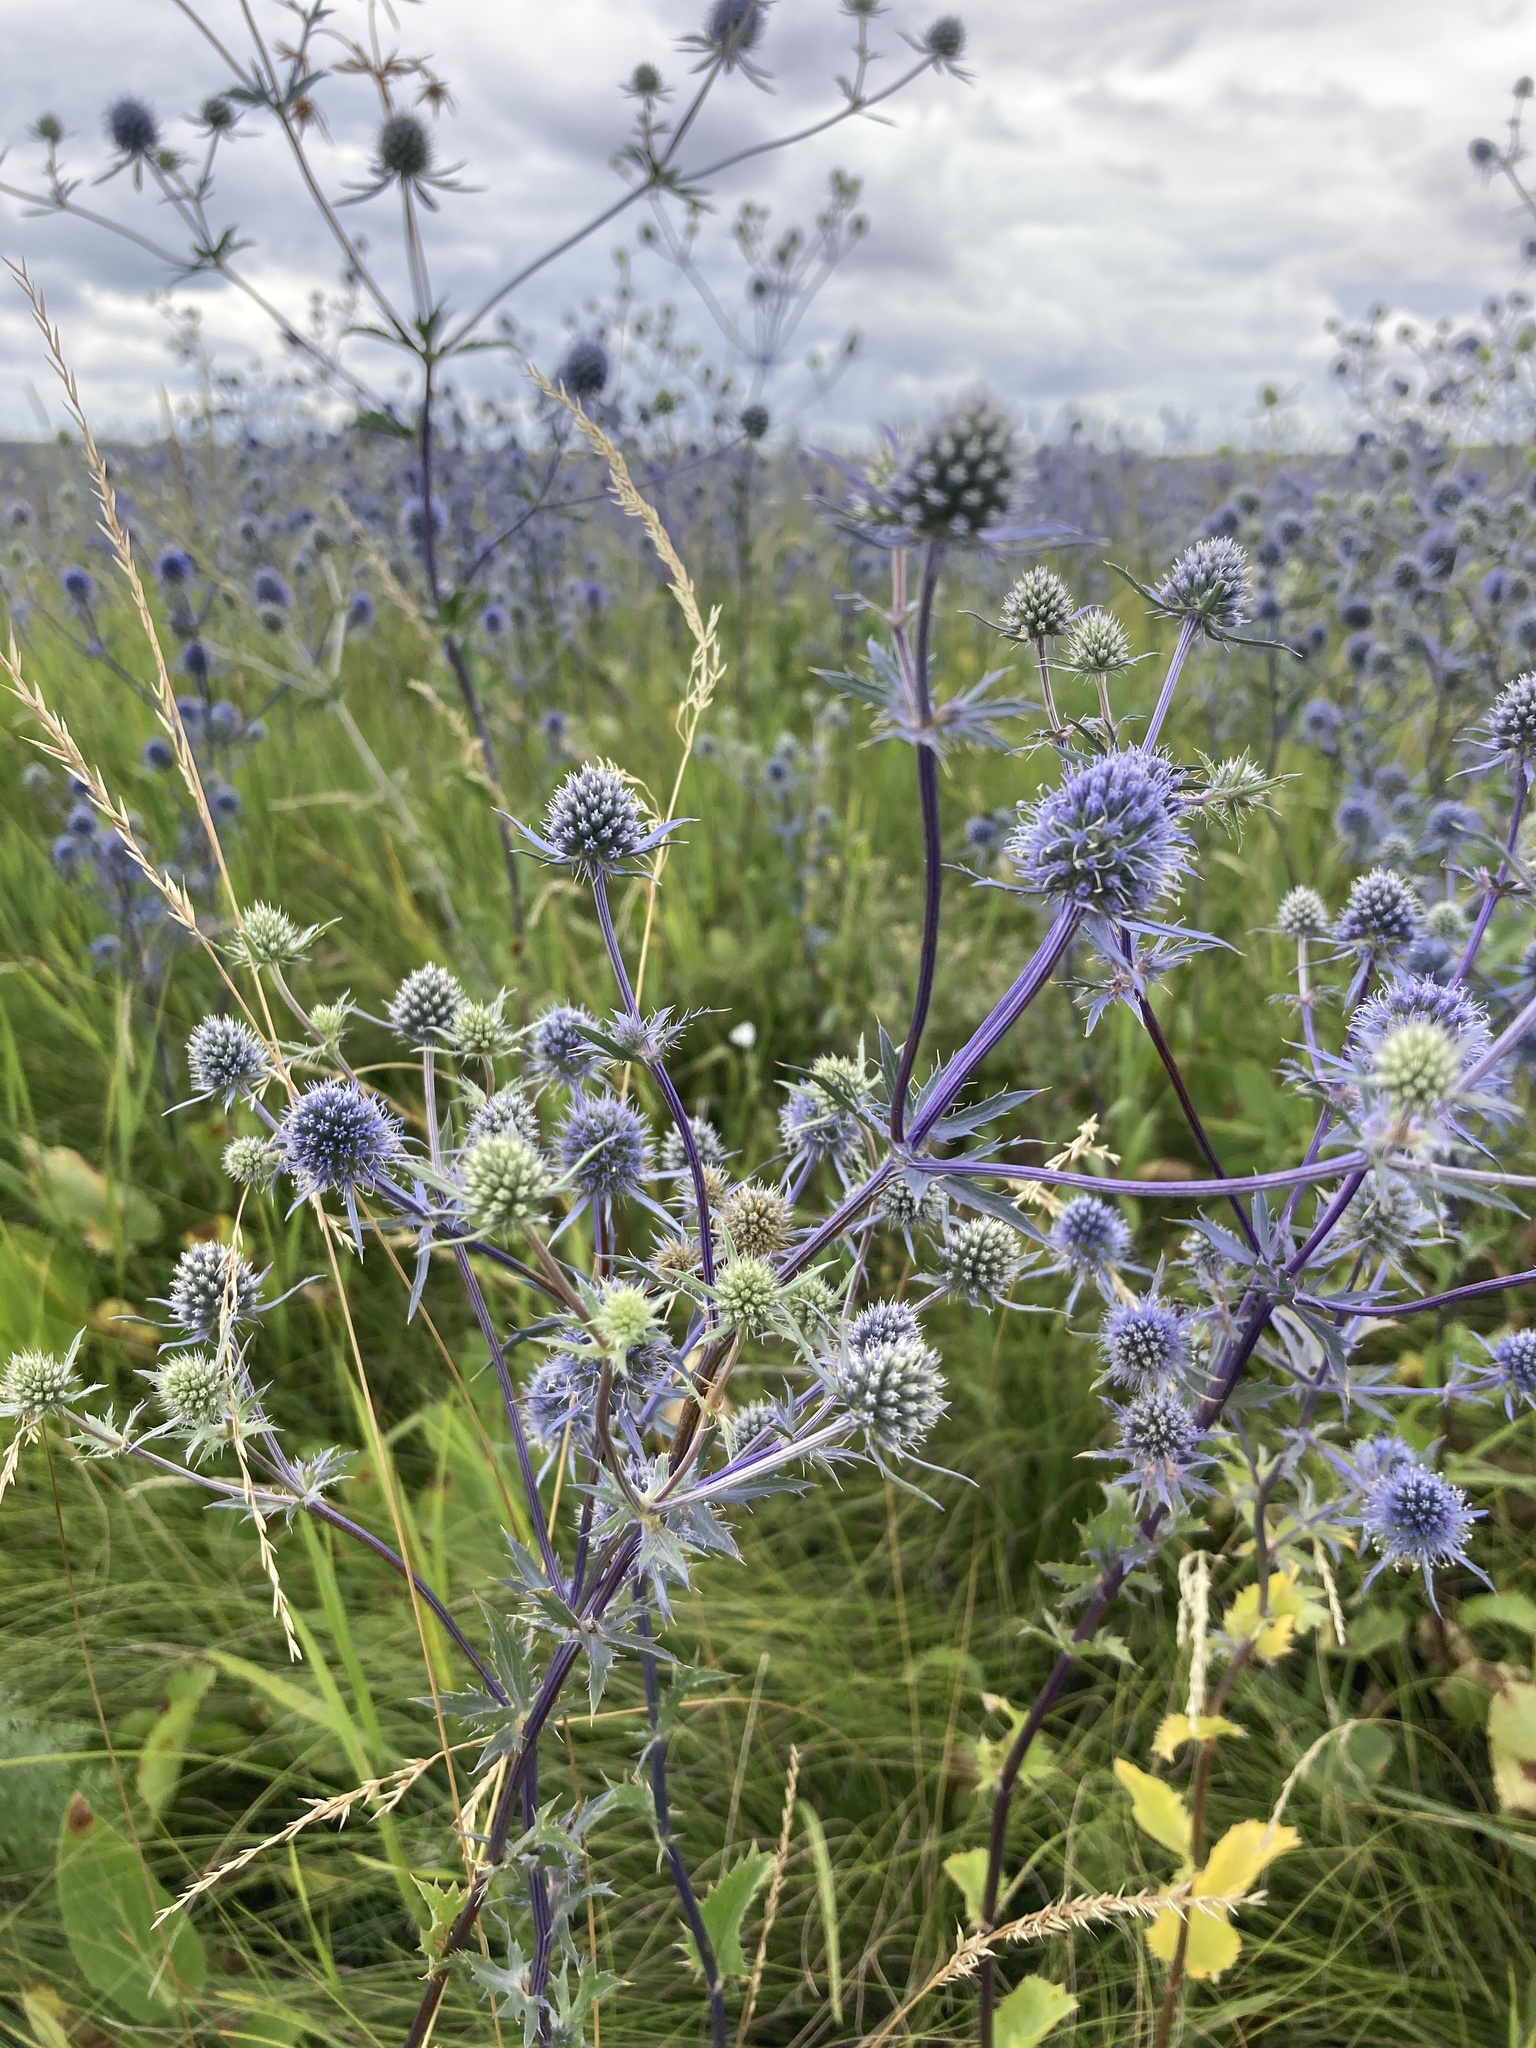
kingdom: Plantae
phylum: Tracheophyta
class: Magnoliopsida
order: Apiales
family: Apiaceae
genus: Eryngium
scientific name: Eryngium planum
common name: Blue eryngo
